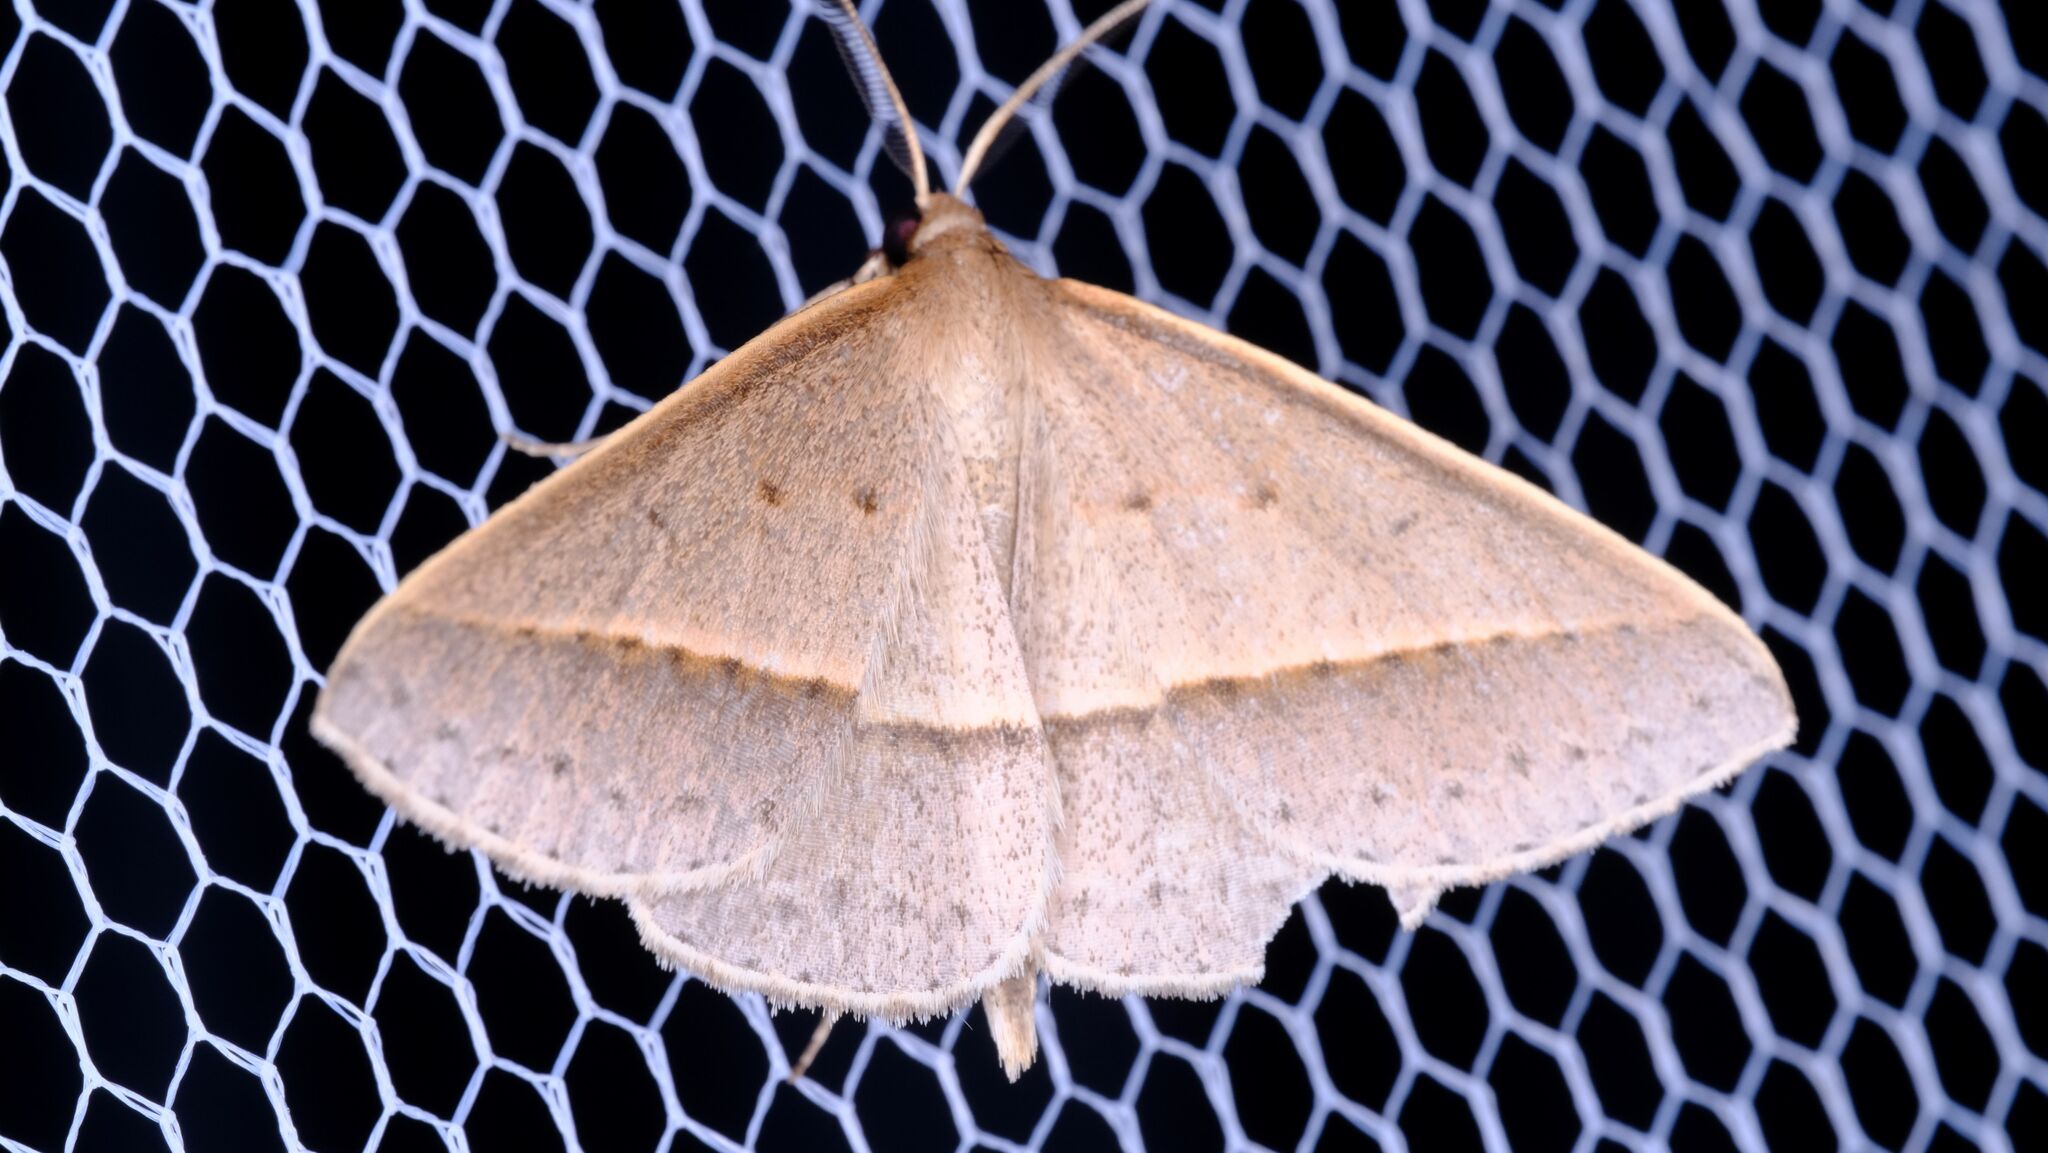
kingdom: Animalia
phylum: Arthropoda
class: Insecta
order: Lepidoptera
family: Geometridae
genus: Epidesmia
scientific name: Epidesmia tryxaria
